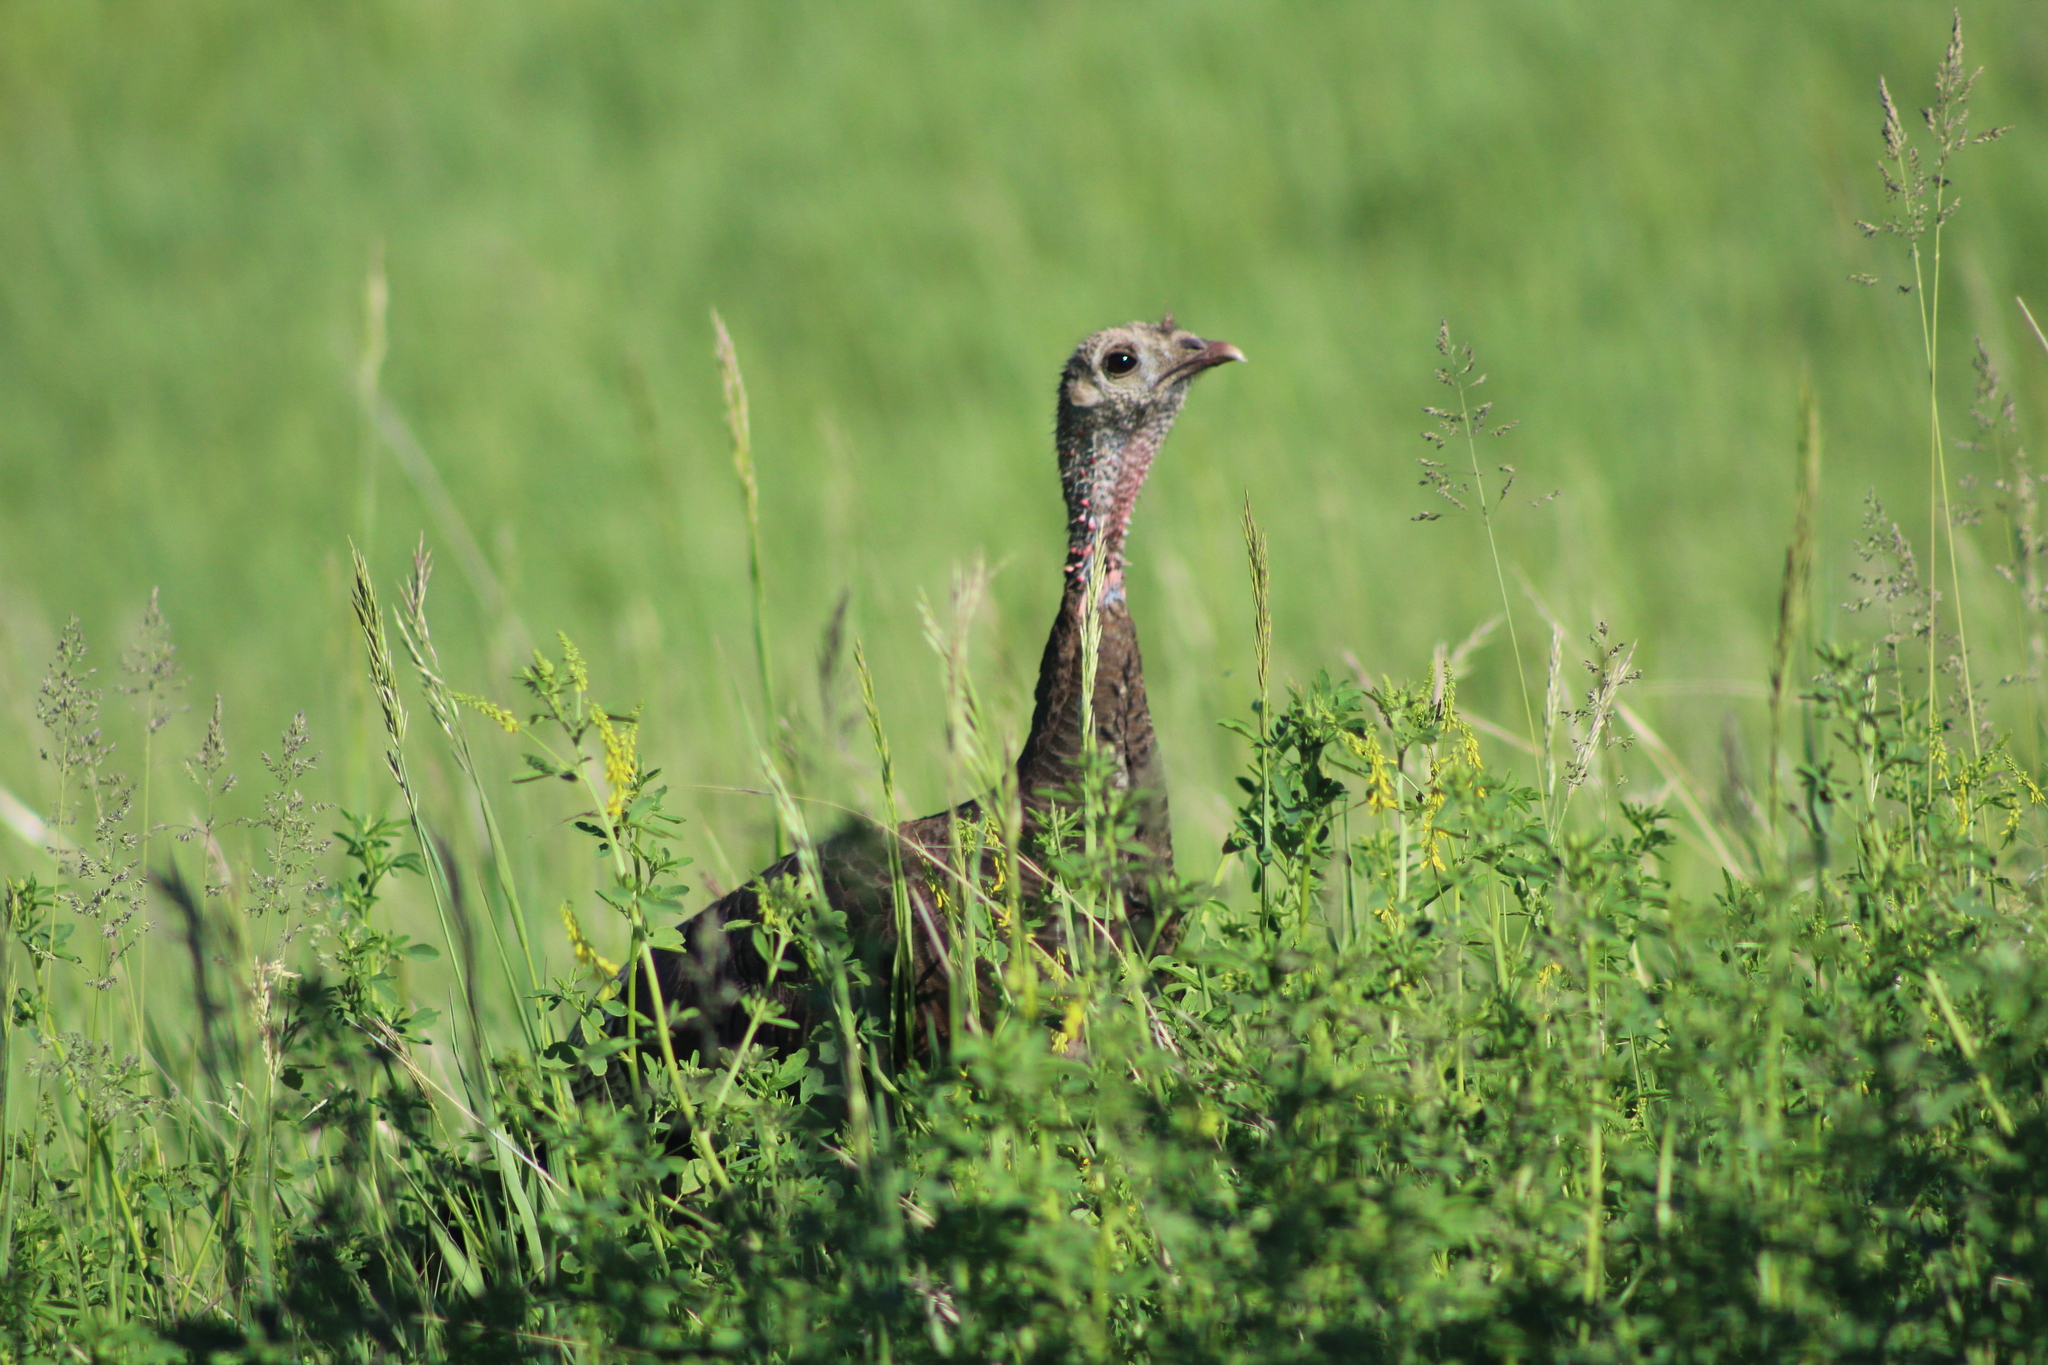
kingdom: Animalia
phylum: Chordata
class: Aves
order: Galliformes
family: Phasianidae
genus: Meleagris
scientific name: Meleagris gallopavo
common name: Wild turkey
